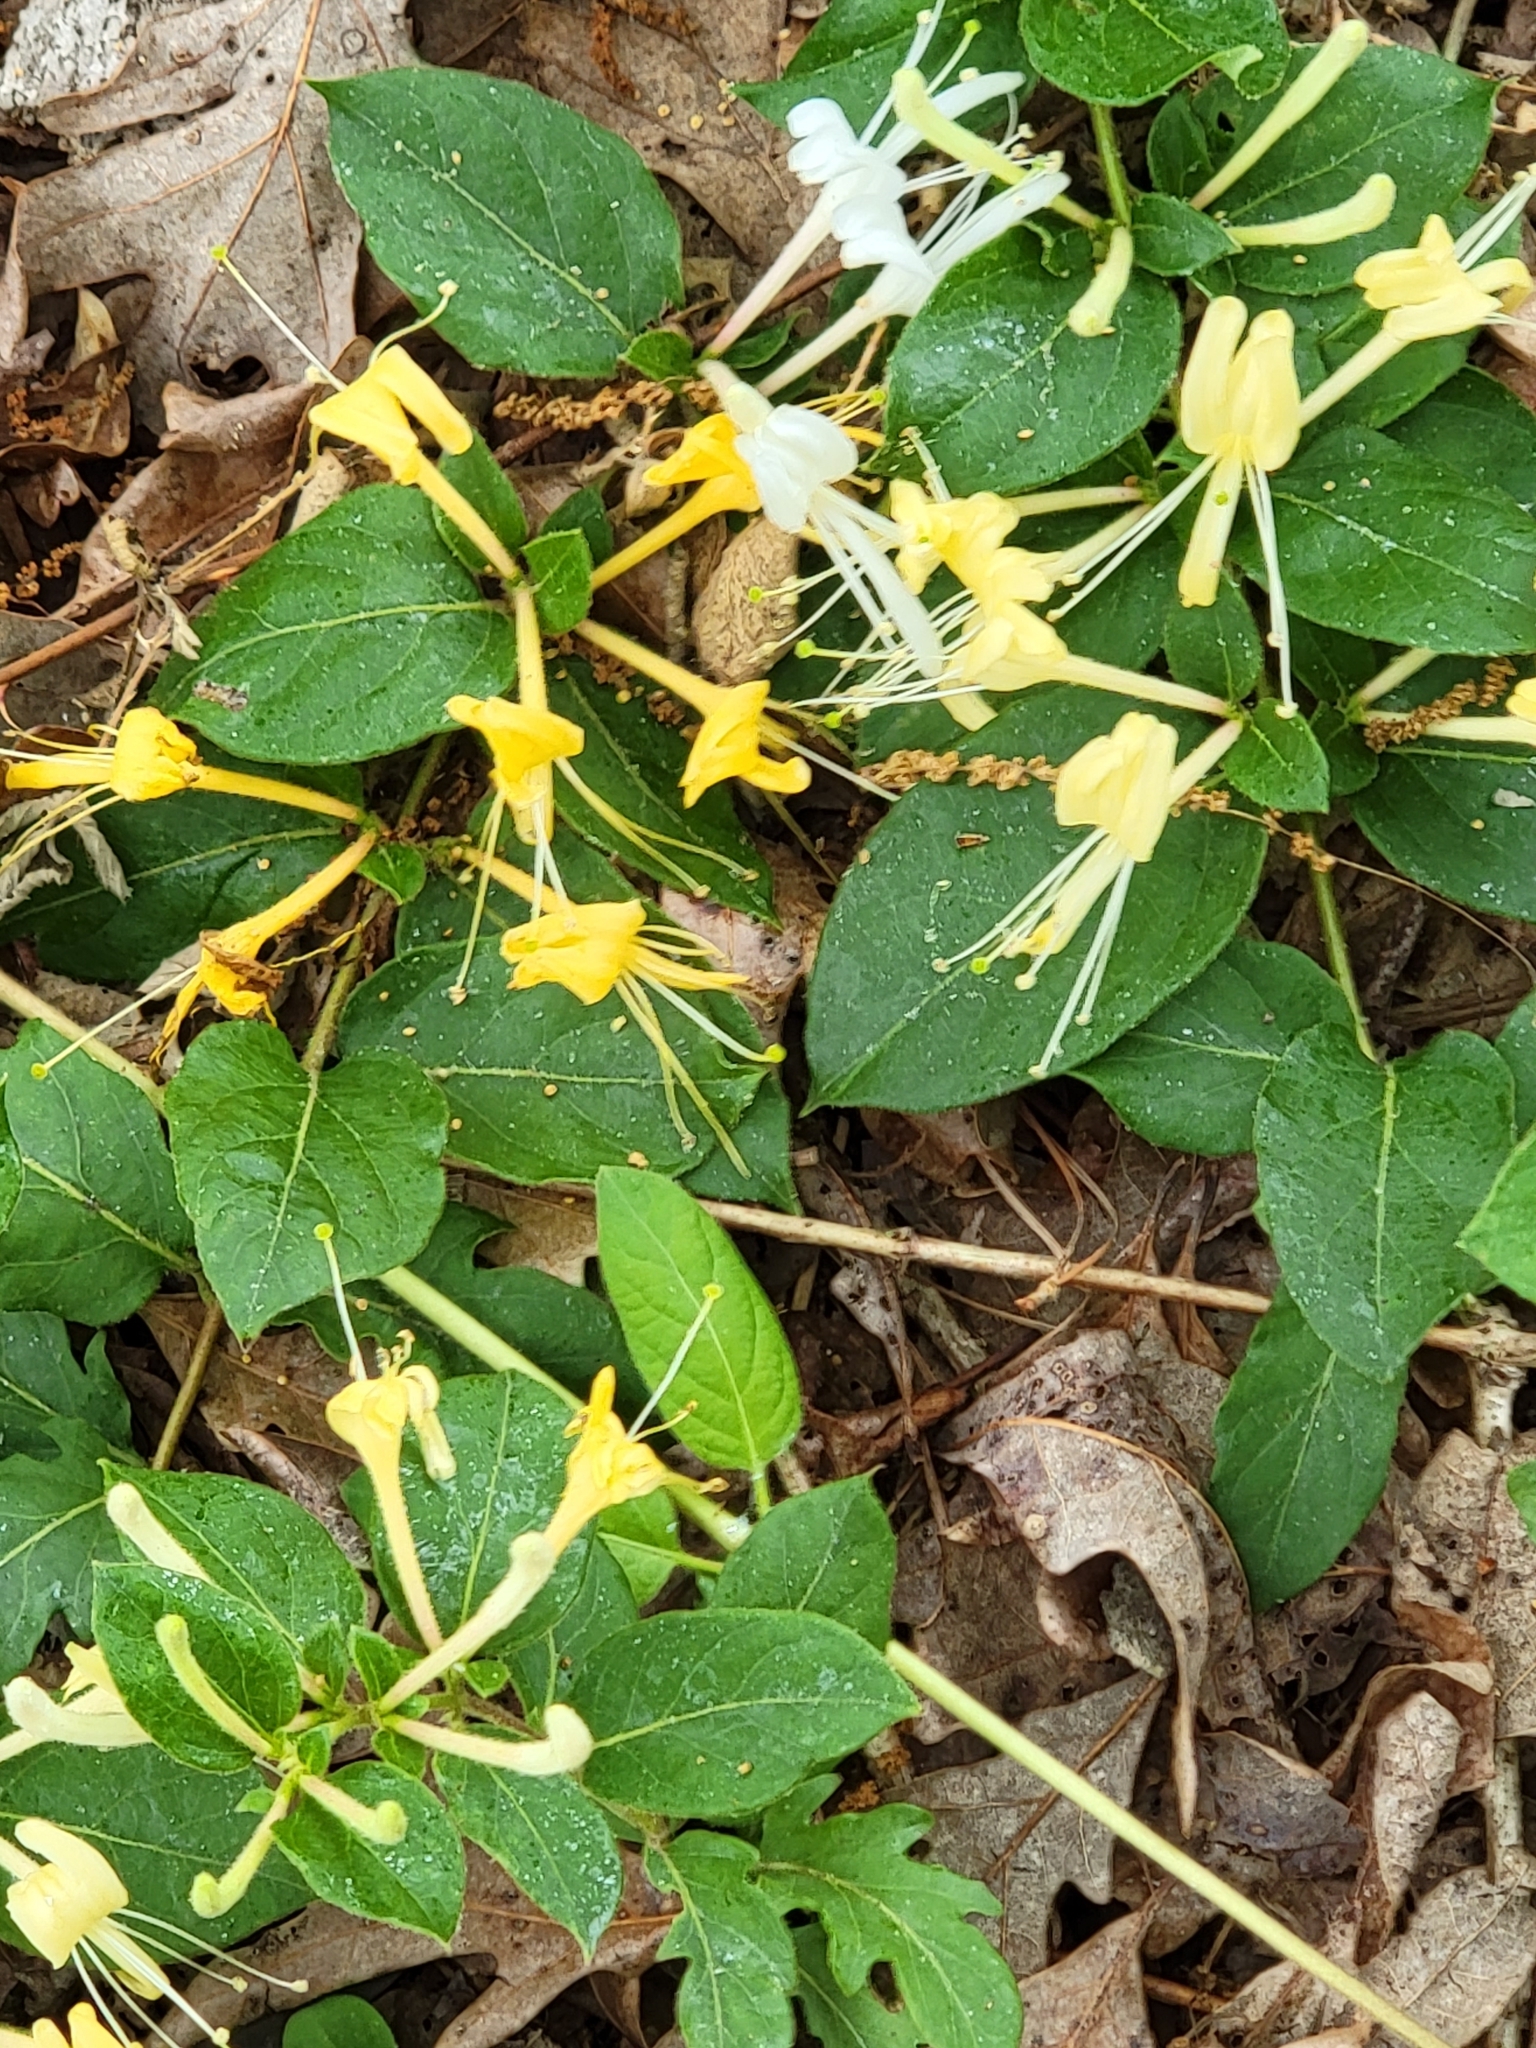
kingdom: Plantae
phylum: Tracheophyta
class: Magnoliopsida
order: Dipsacales
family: Caprifoliaceae
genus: Lonicera
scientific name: Lonicera japonica
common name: Japanese honeysuckle
